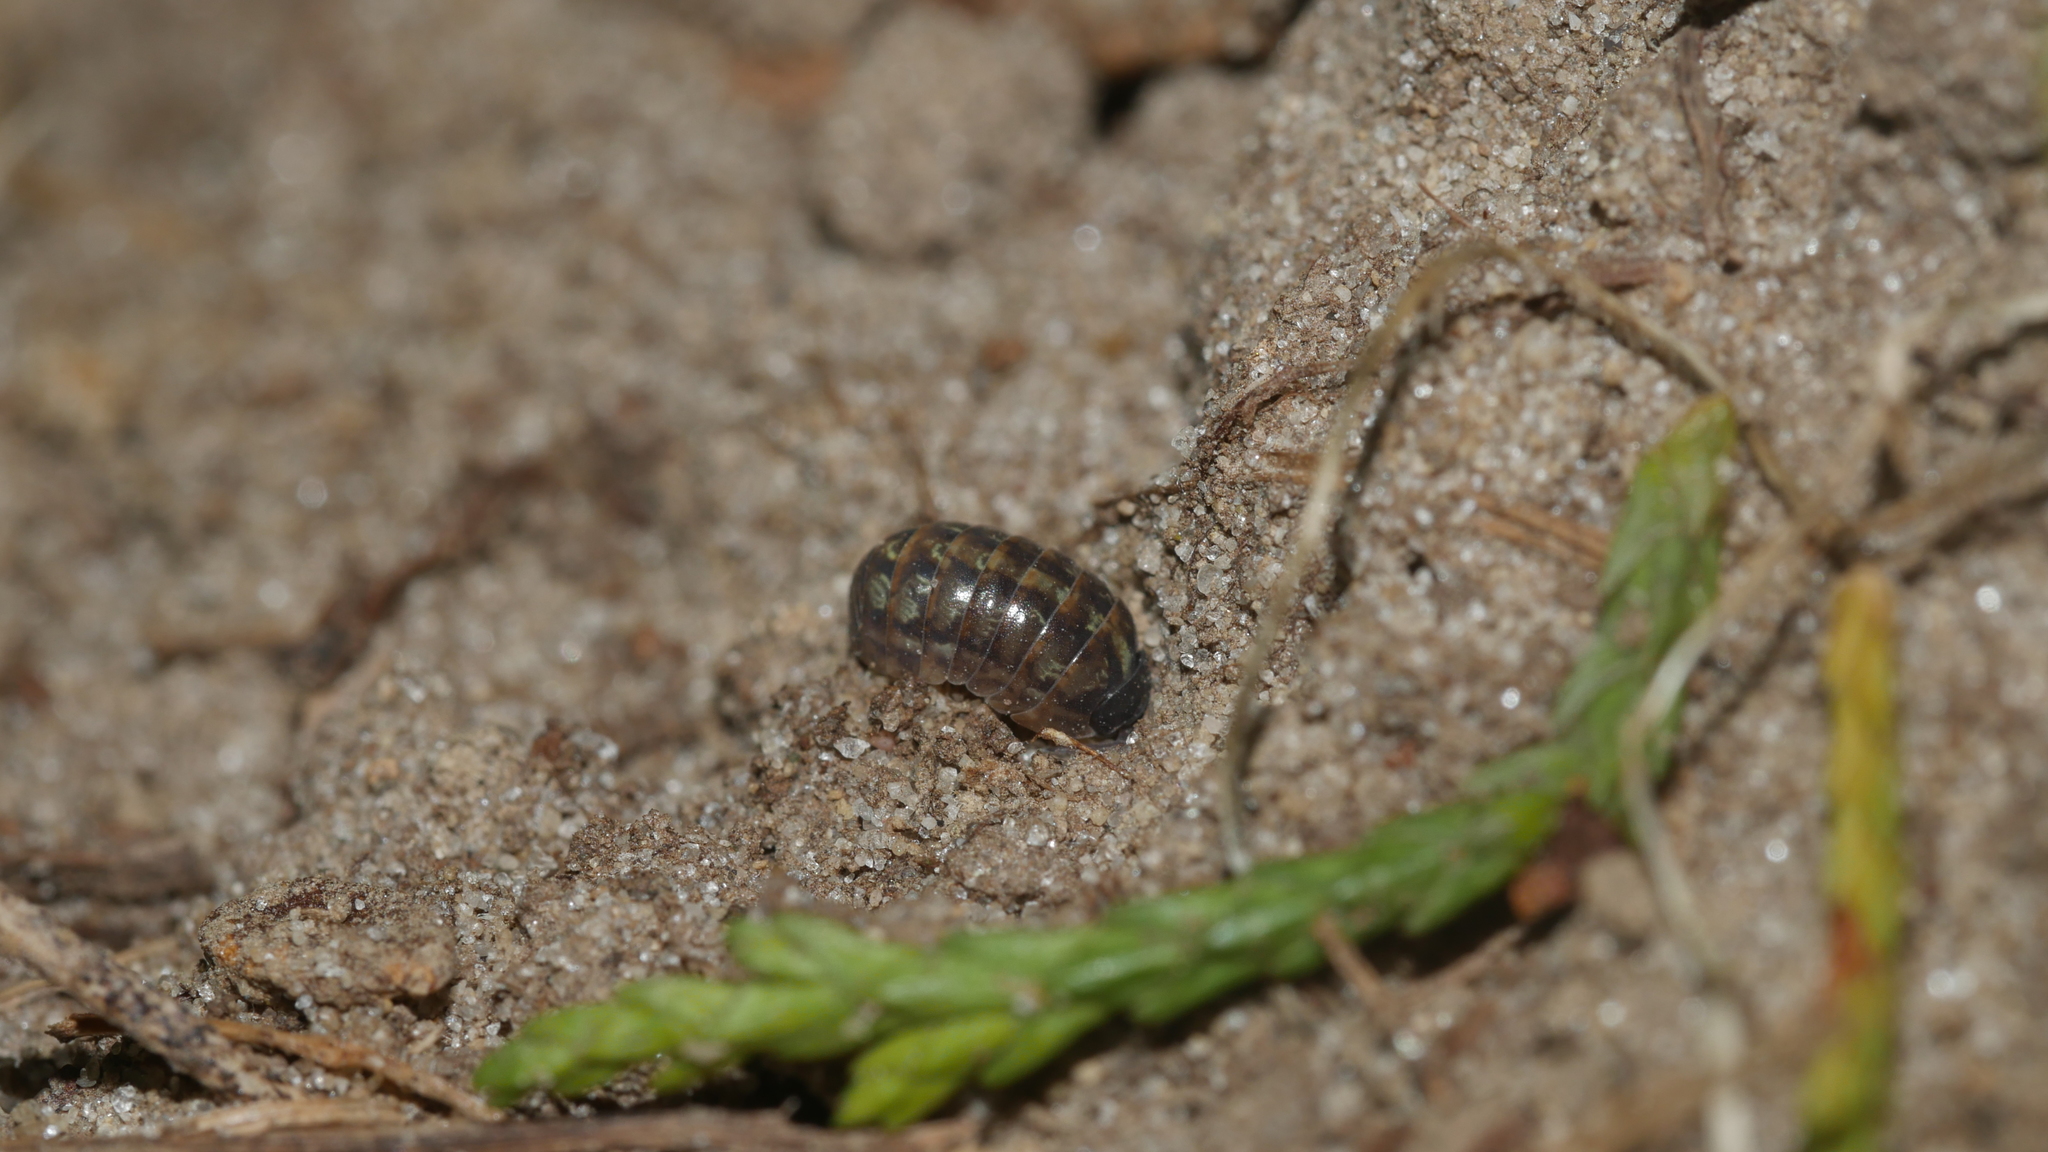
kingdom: Animalia
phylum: Arthropoda
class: Malacostraca
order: Isopoda
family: Armadillidiidae
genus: Armadillidium
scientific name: Armadillidium vulgare
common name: Common pill woodlouse
